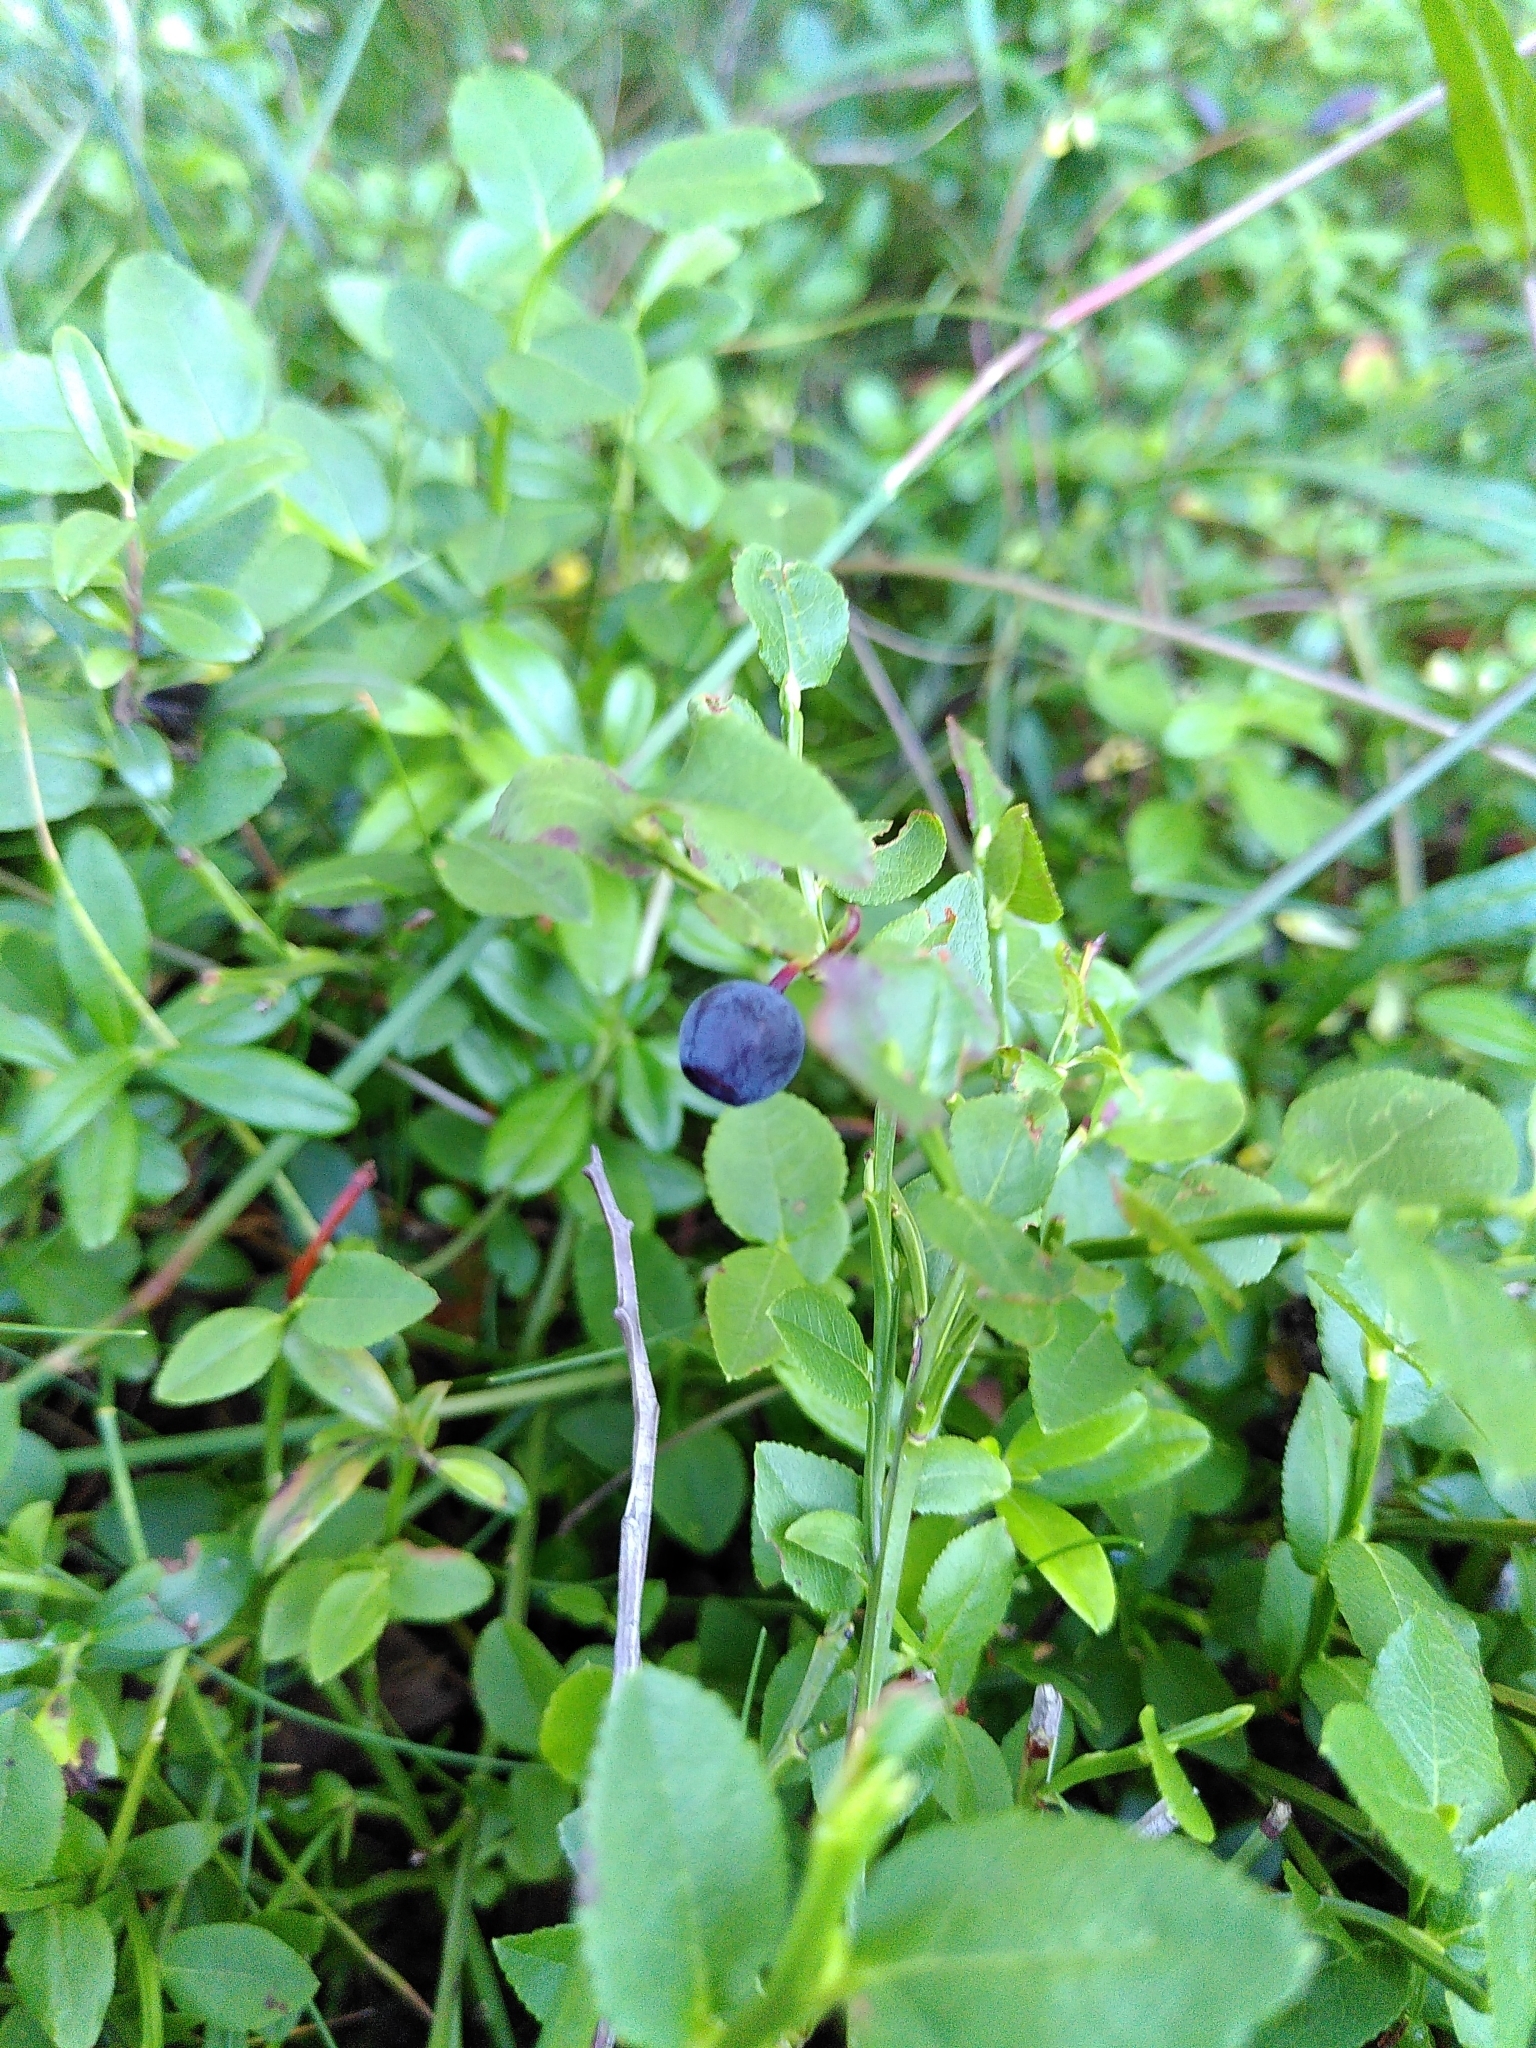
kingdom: Plantae
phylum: Tracheophyta
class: Magnoliopsida
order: Ericales
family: Ericaceae
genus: Vaccinium
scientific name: Vaccinium myrtillus
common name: Bilberry
